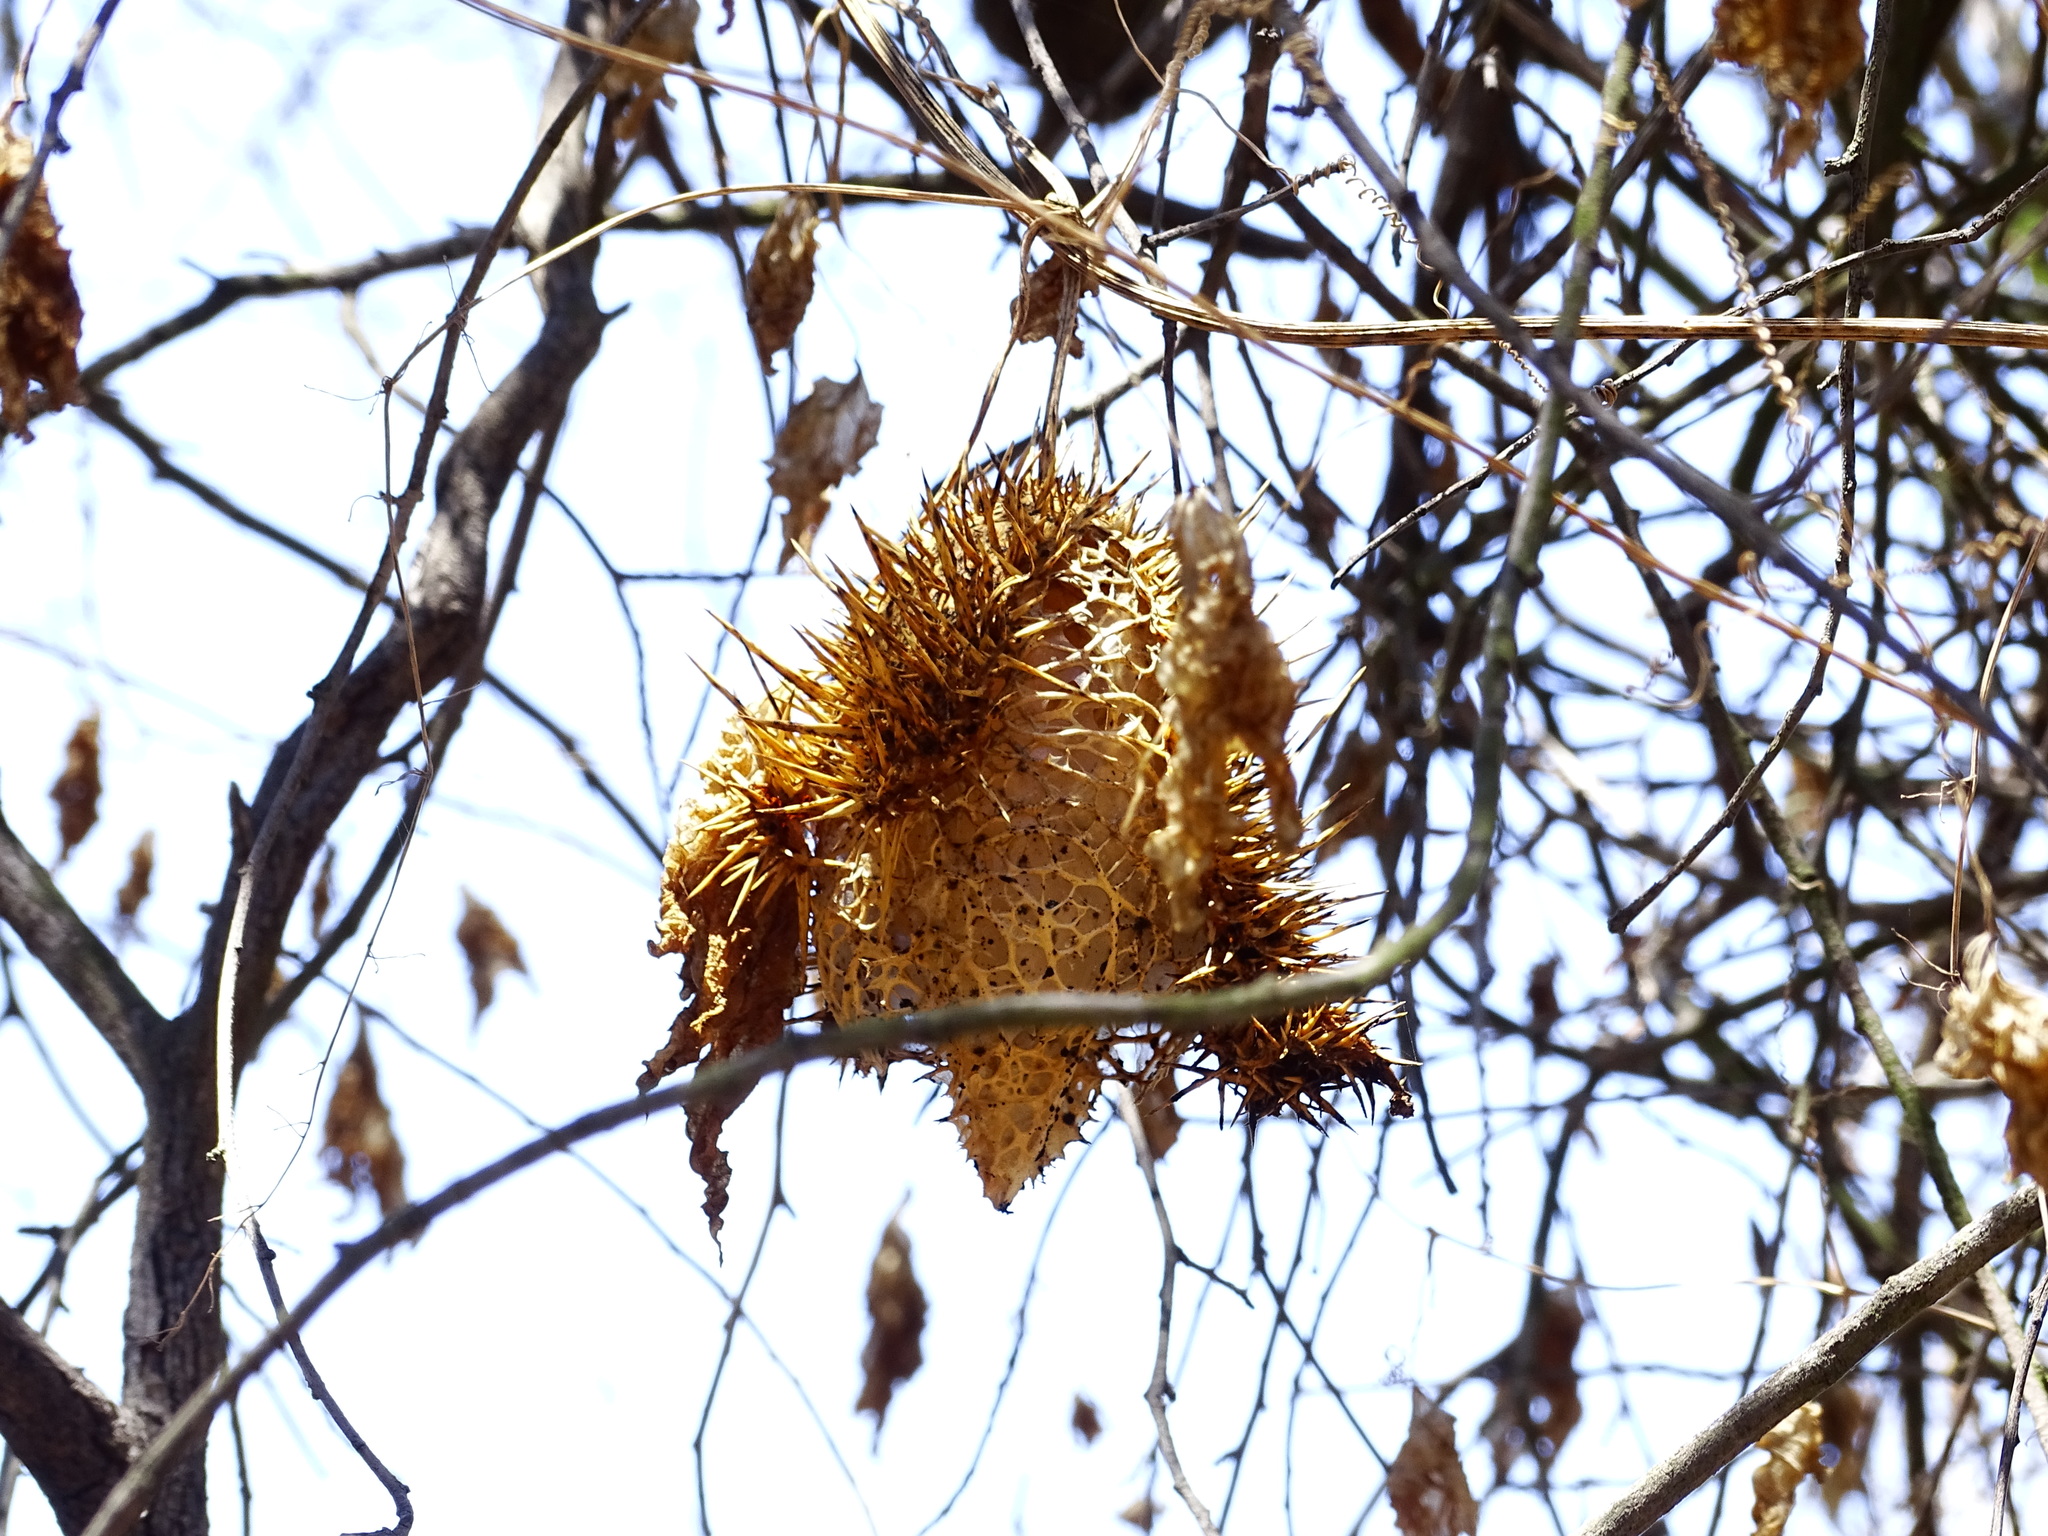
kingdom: Plantae
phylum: Tracheophyta
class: Magnoliopsida
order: Cucurbitales
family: Cucurbitaceae
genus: Marah
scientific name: Marah macrocarpa
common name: Cucamonga manroot
